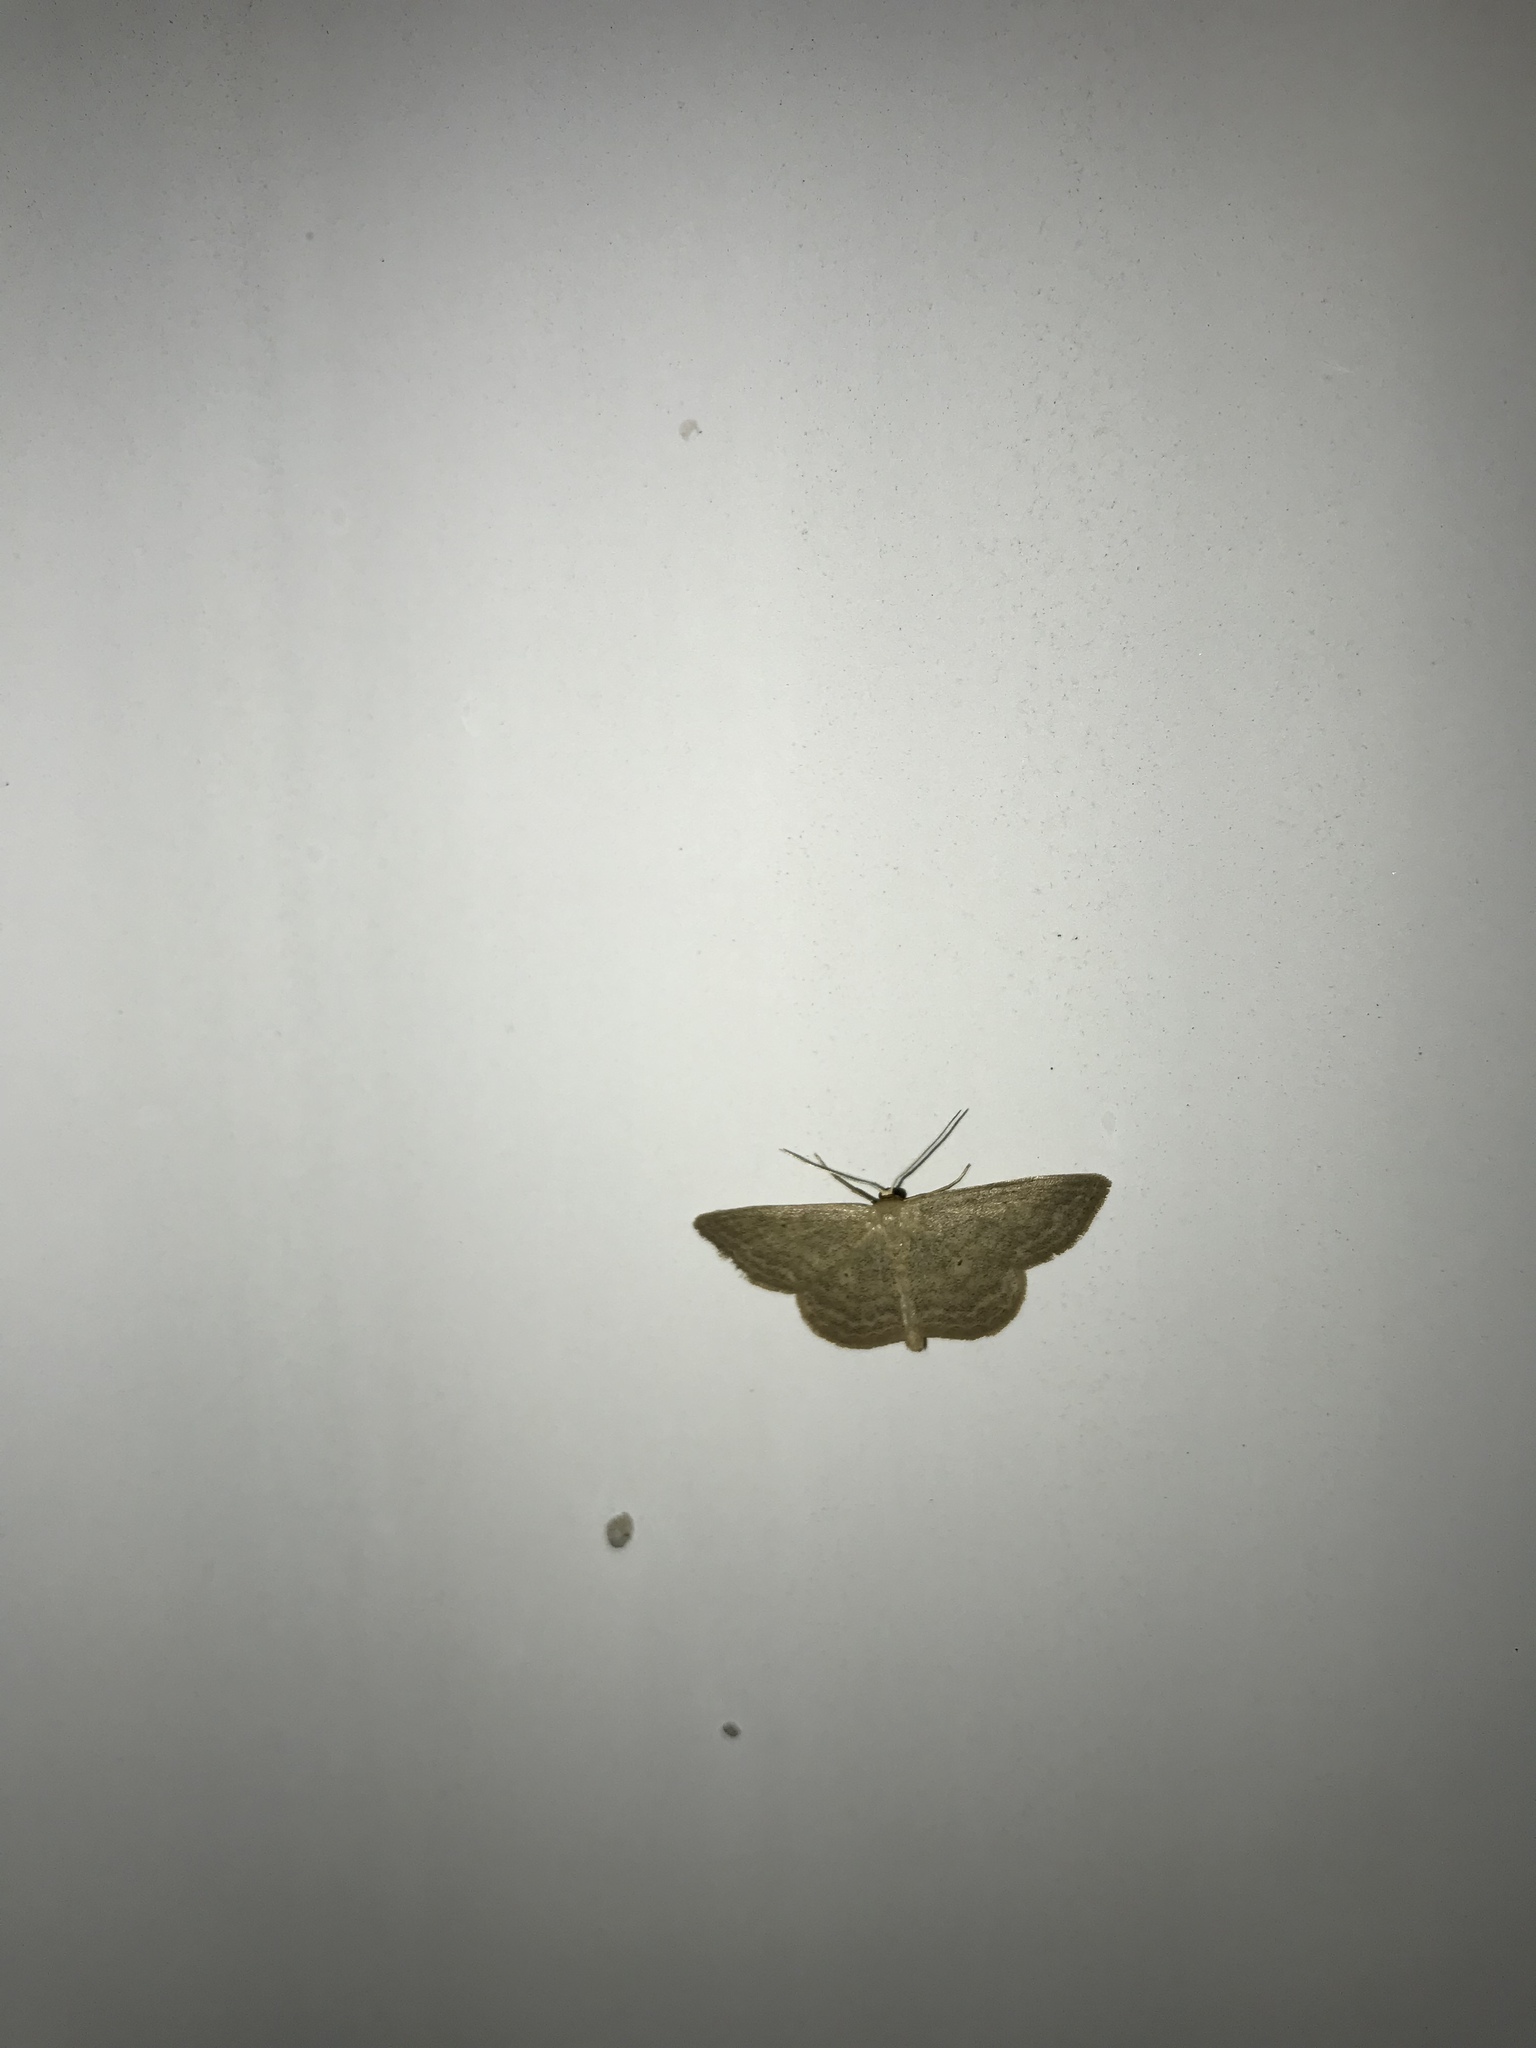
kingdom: Animalia
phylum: Arthropoda
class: Insecta
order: Lepidoptera
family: Geometridae
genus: Scopula
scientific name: Scopula inductata
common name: Soft-lined wave
